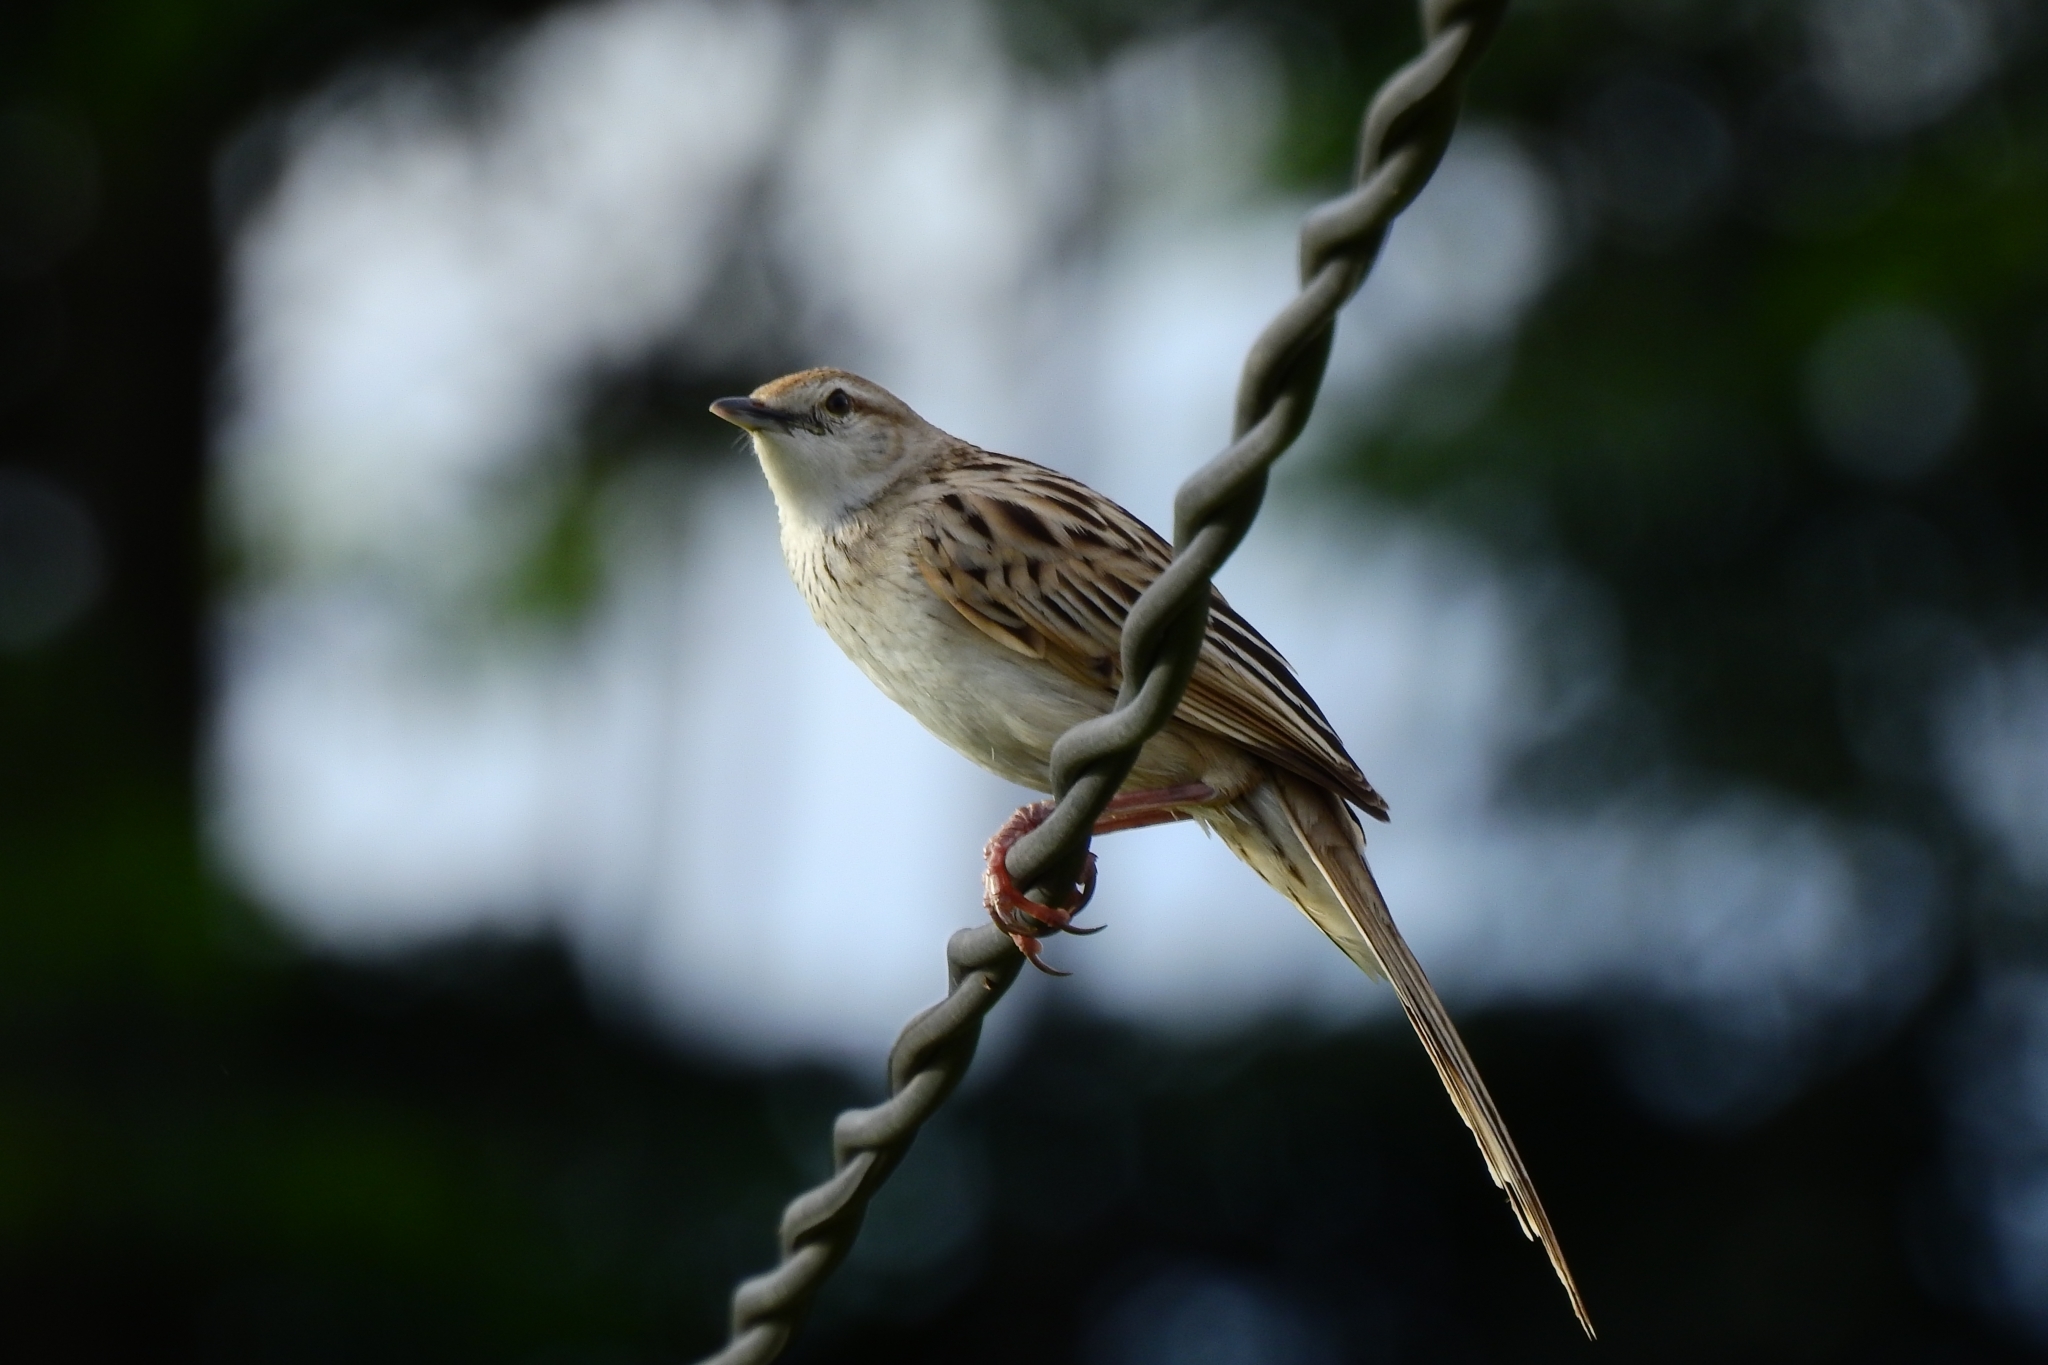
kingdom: Animalia
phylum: Chordata
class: Aves
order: Passeriformes
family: Locustellidae
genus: Megalurus
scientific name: Megalurus palustris
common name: Striated grassbird
